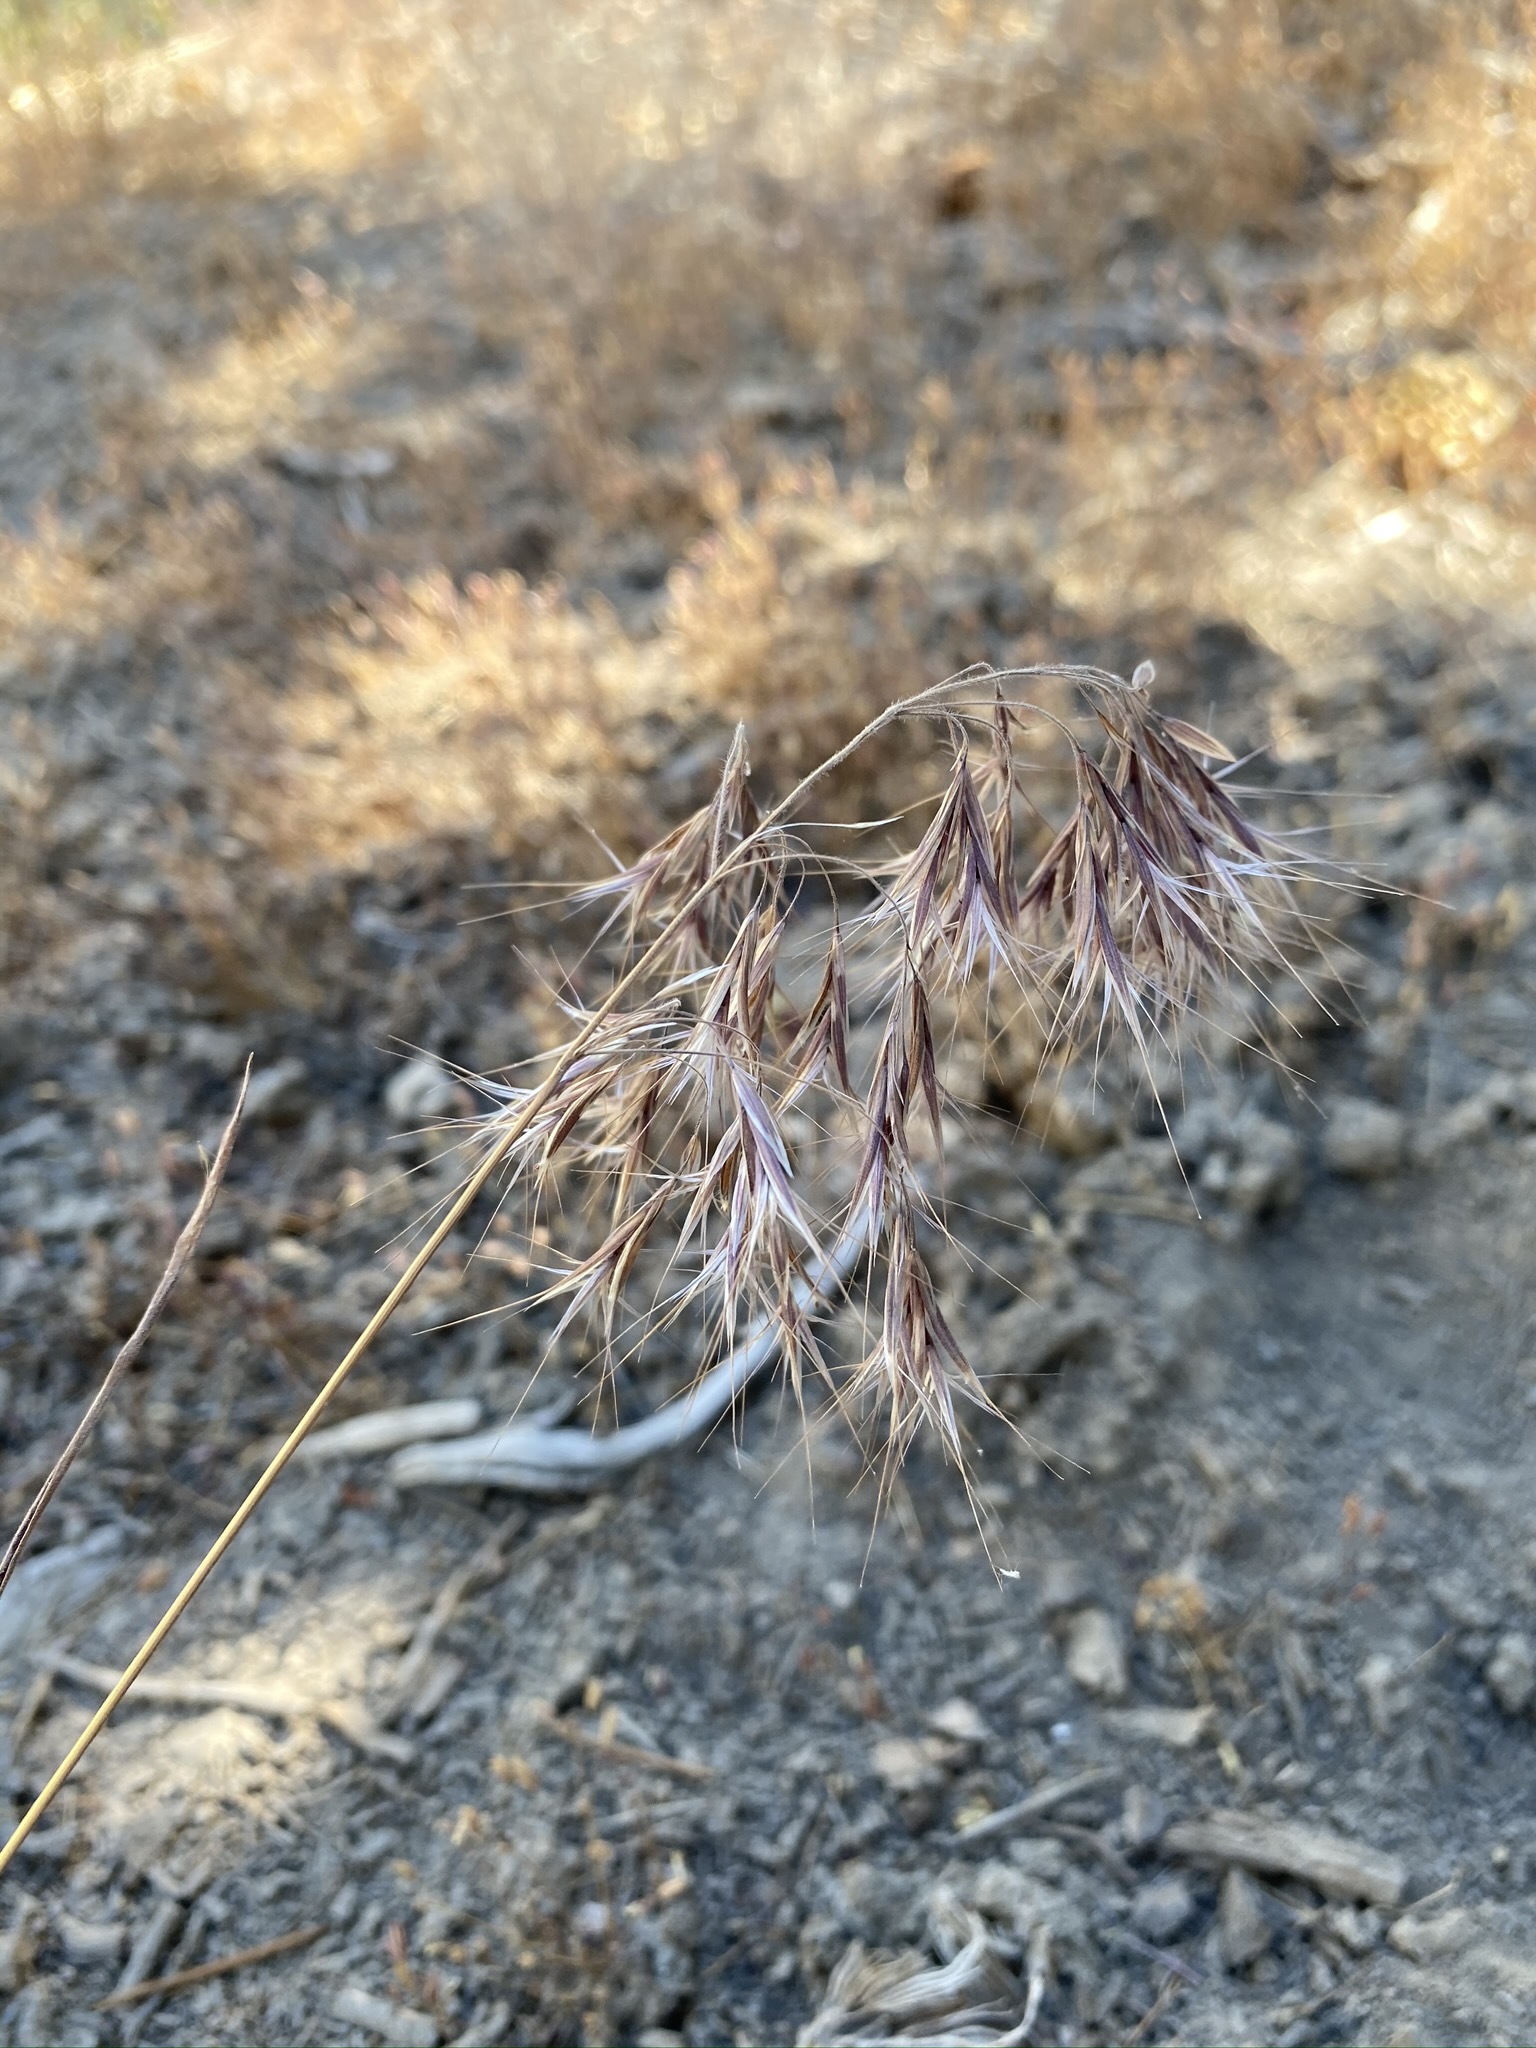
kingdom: Plantae
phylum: Tracheophyta
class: Liliopsida
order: Poales
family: Poaceae
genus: Bromus
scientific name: Bromus tectorum
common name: Cheatgrass
